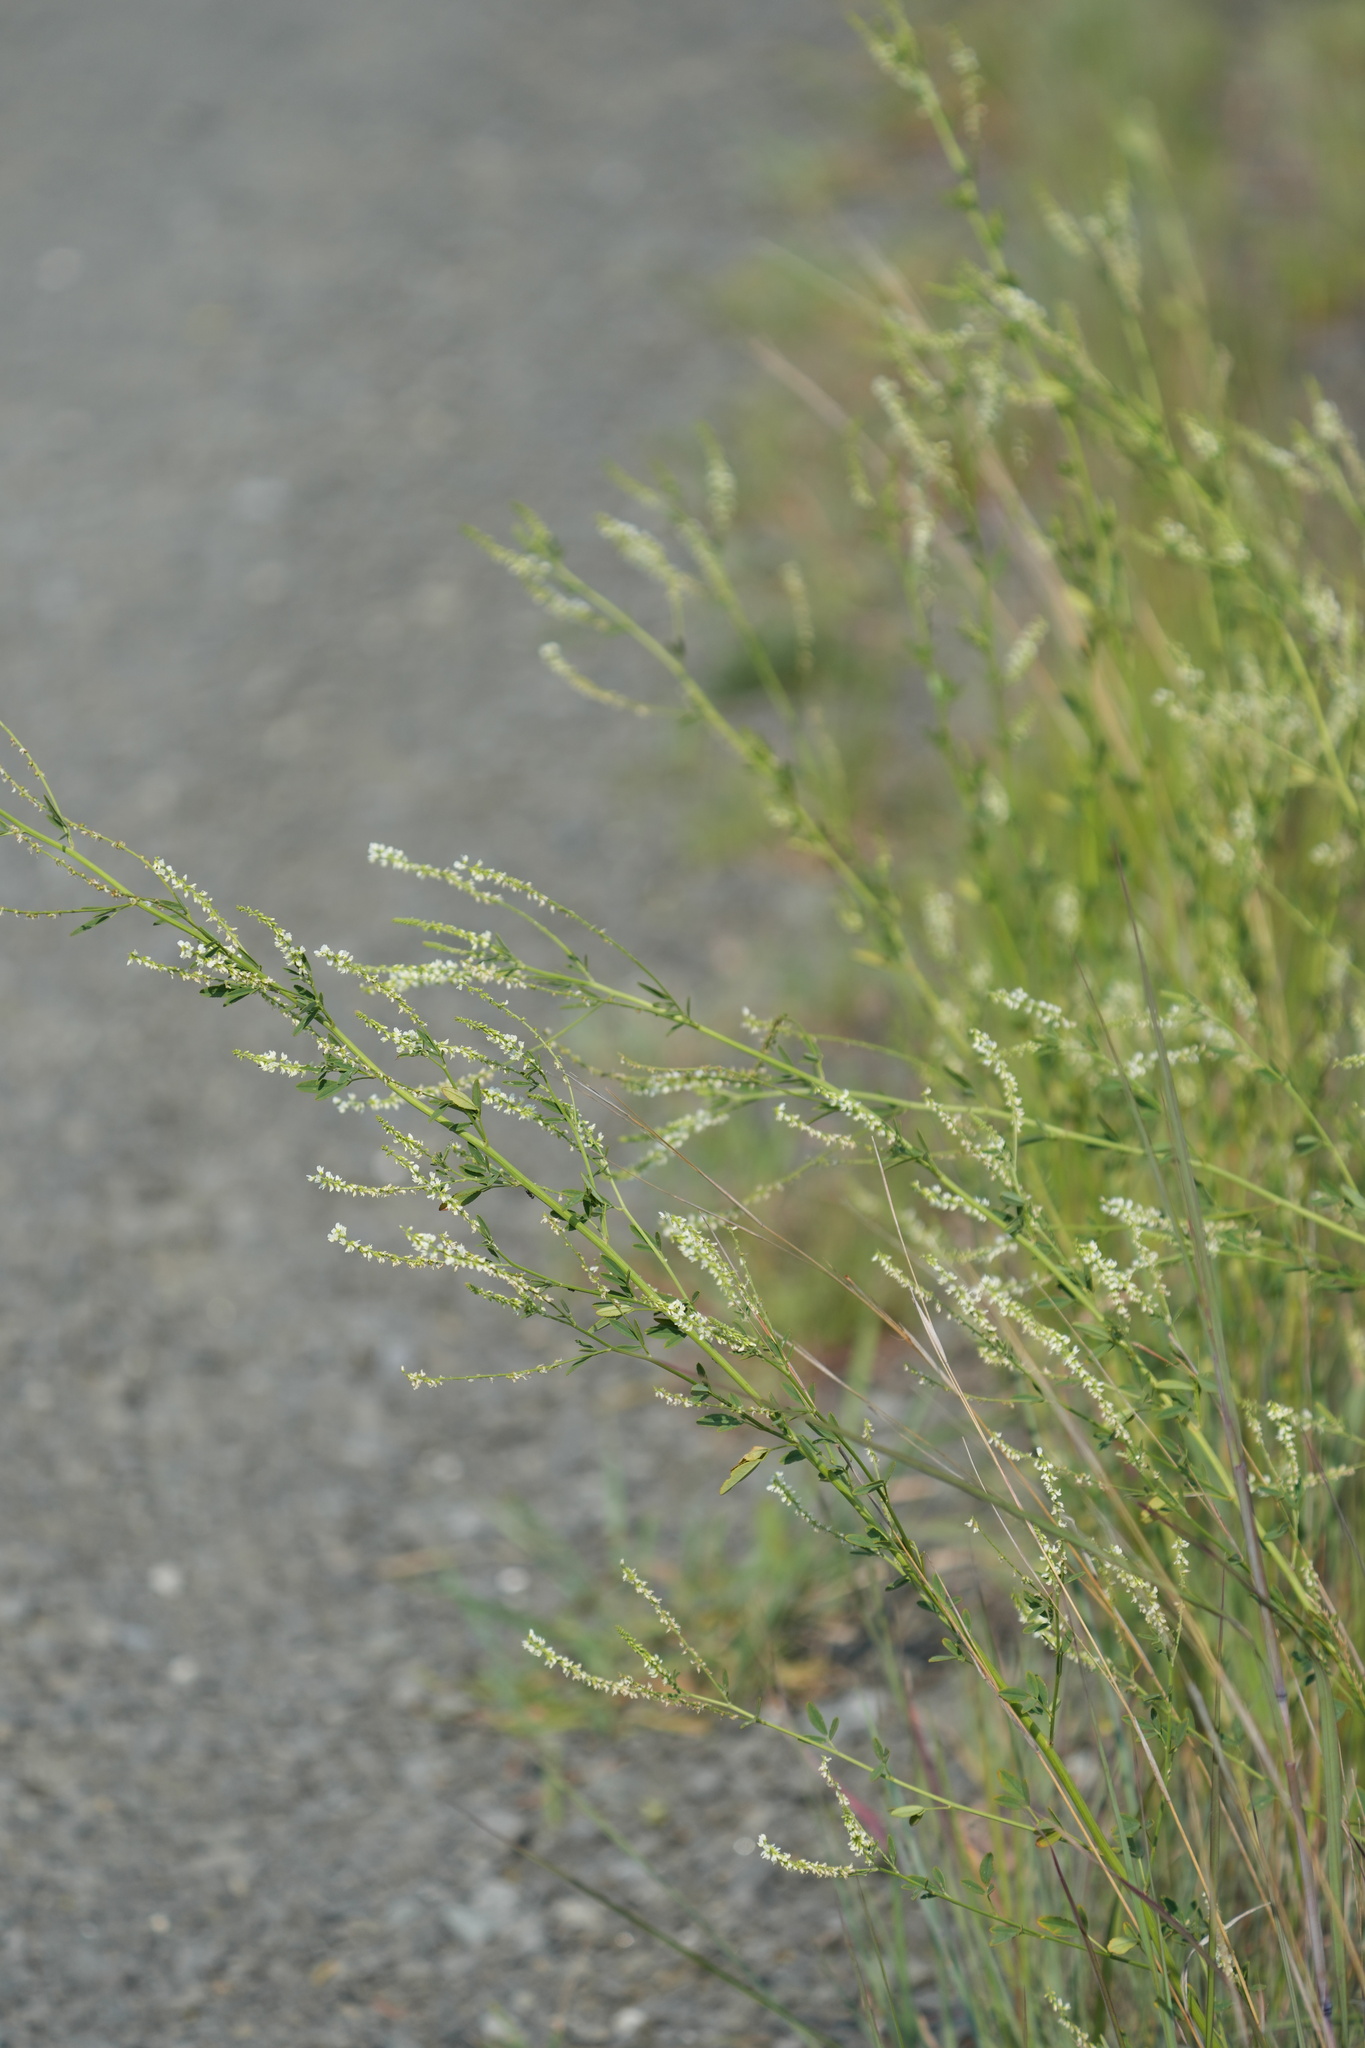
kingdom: Plantae
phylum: Tracheophyta
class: Magnoliopsida
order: Fabales
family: Fabaceae
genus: Melilotus
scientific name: Melilotus albus
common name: White melilot
